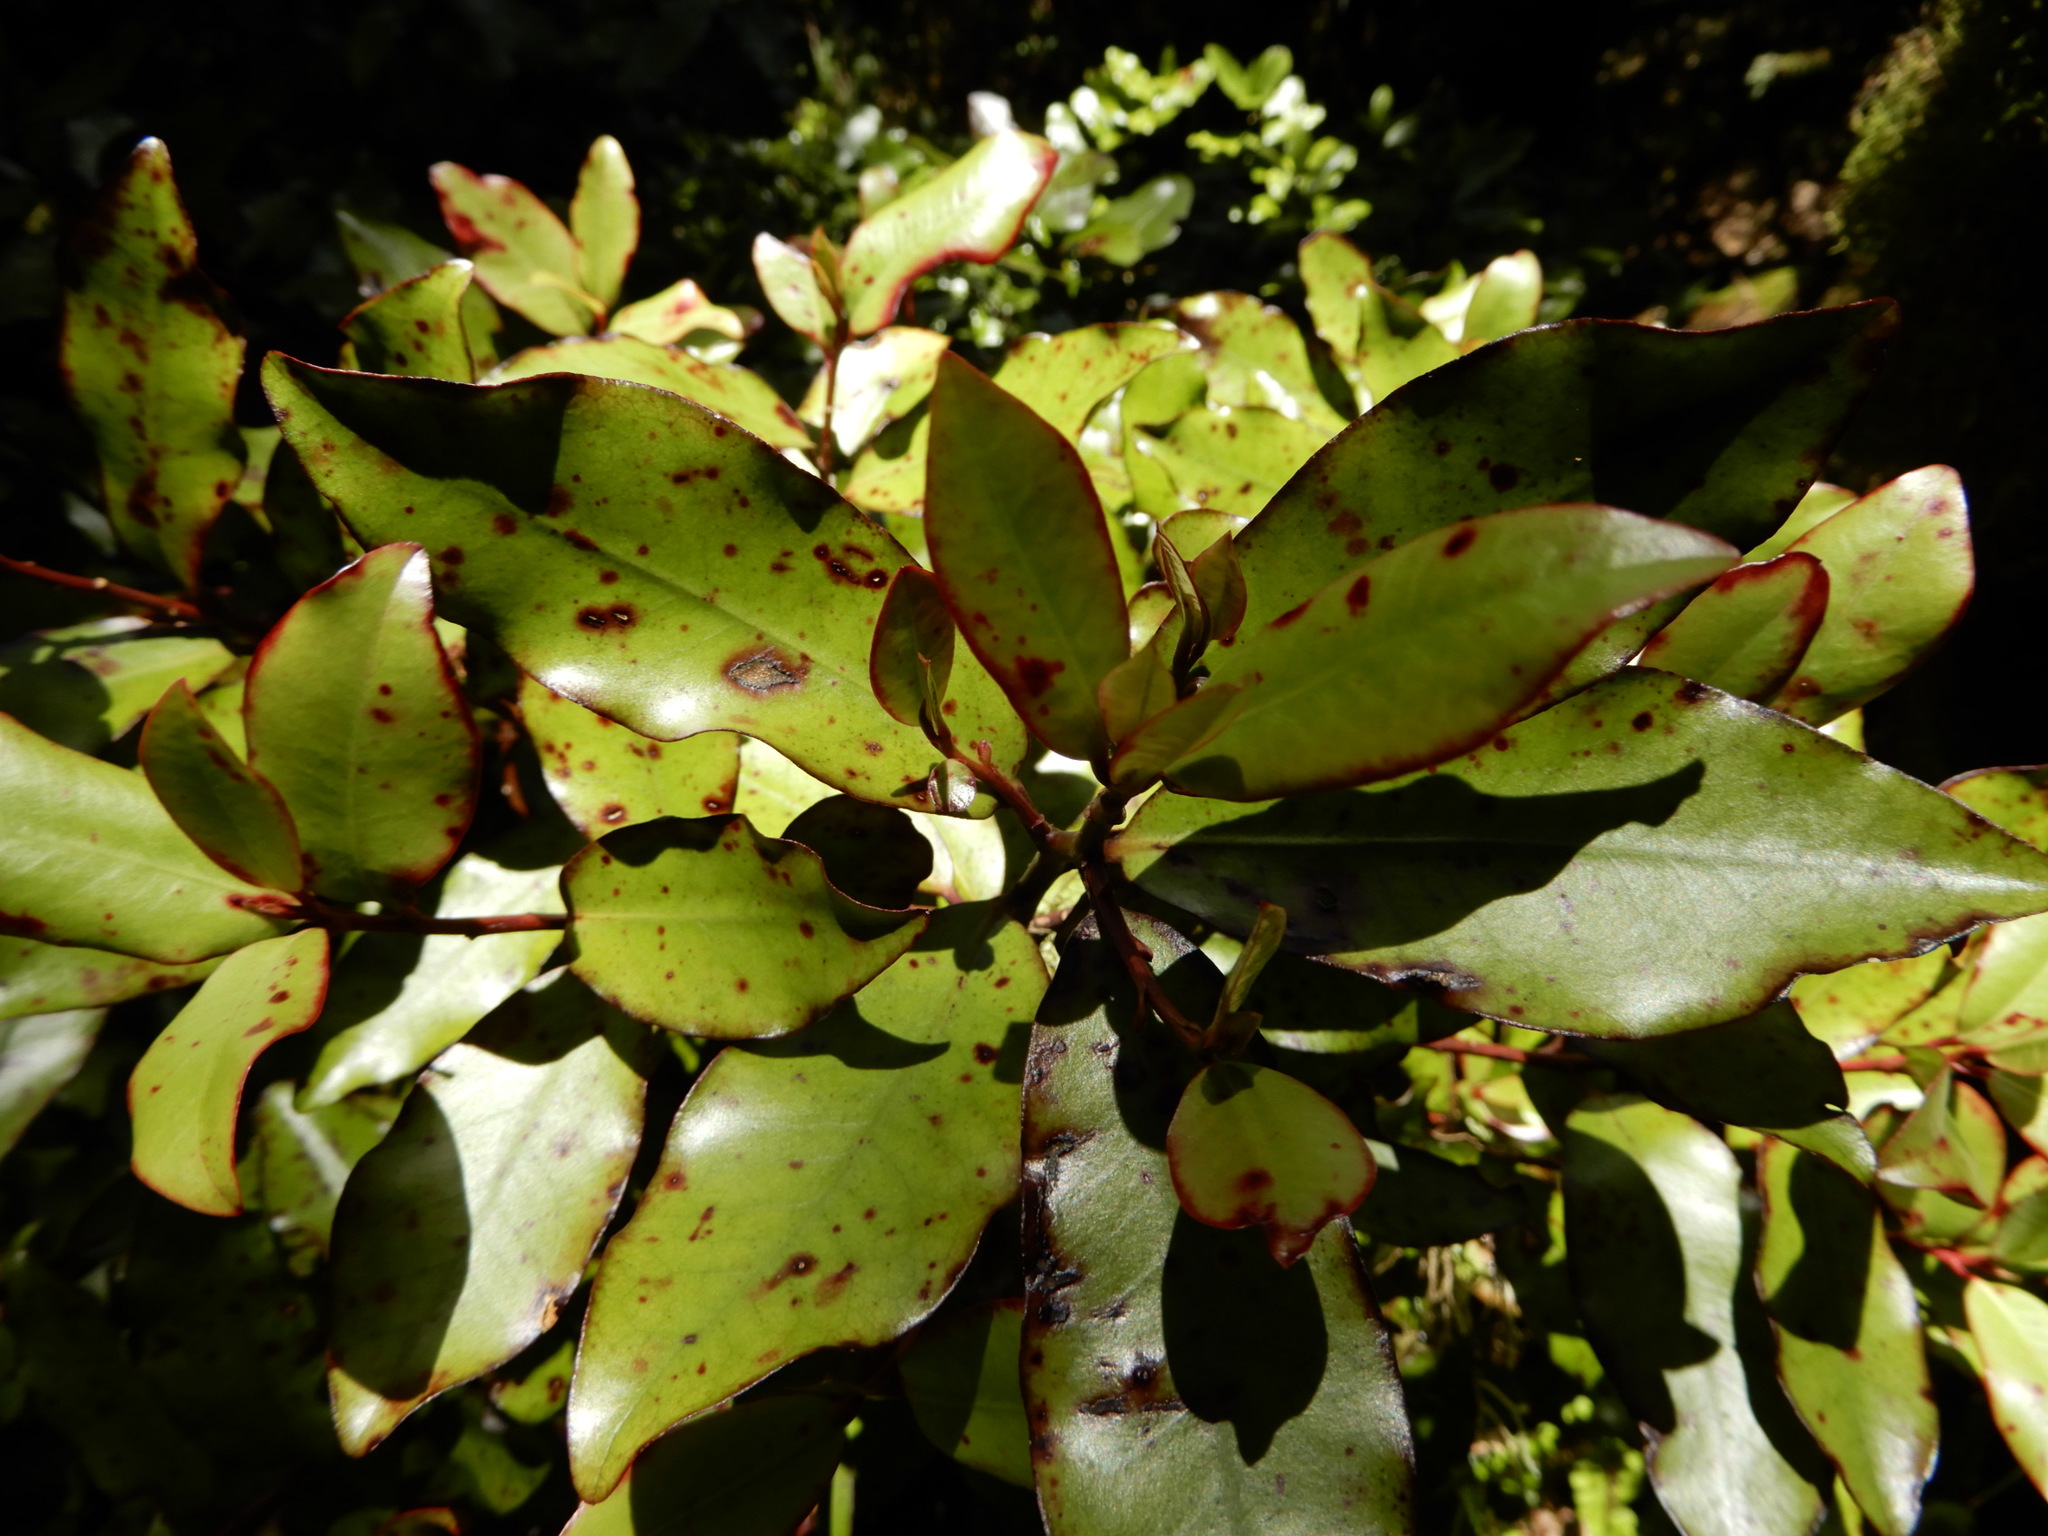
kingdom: Plantae
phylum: Tracheophyta
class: Magnoliopsida
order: Canellales
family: Winteraceae
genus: Pseudowintera
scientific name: Pseudowintera colorata
